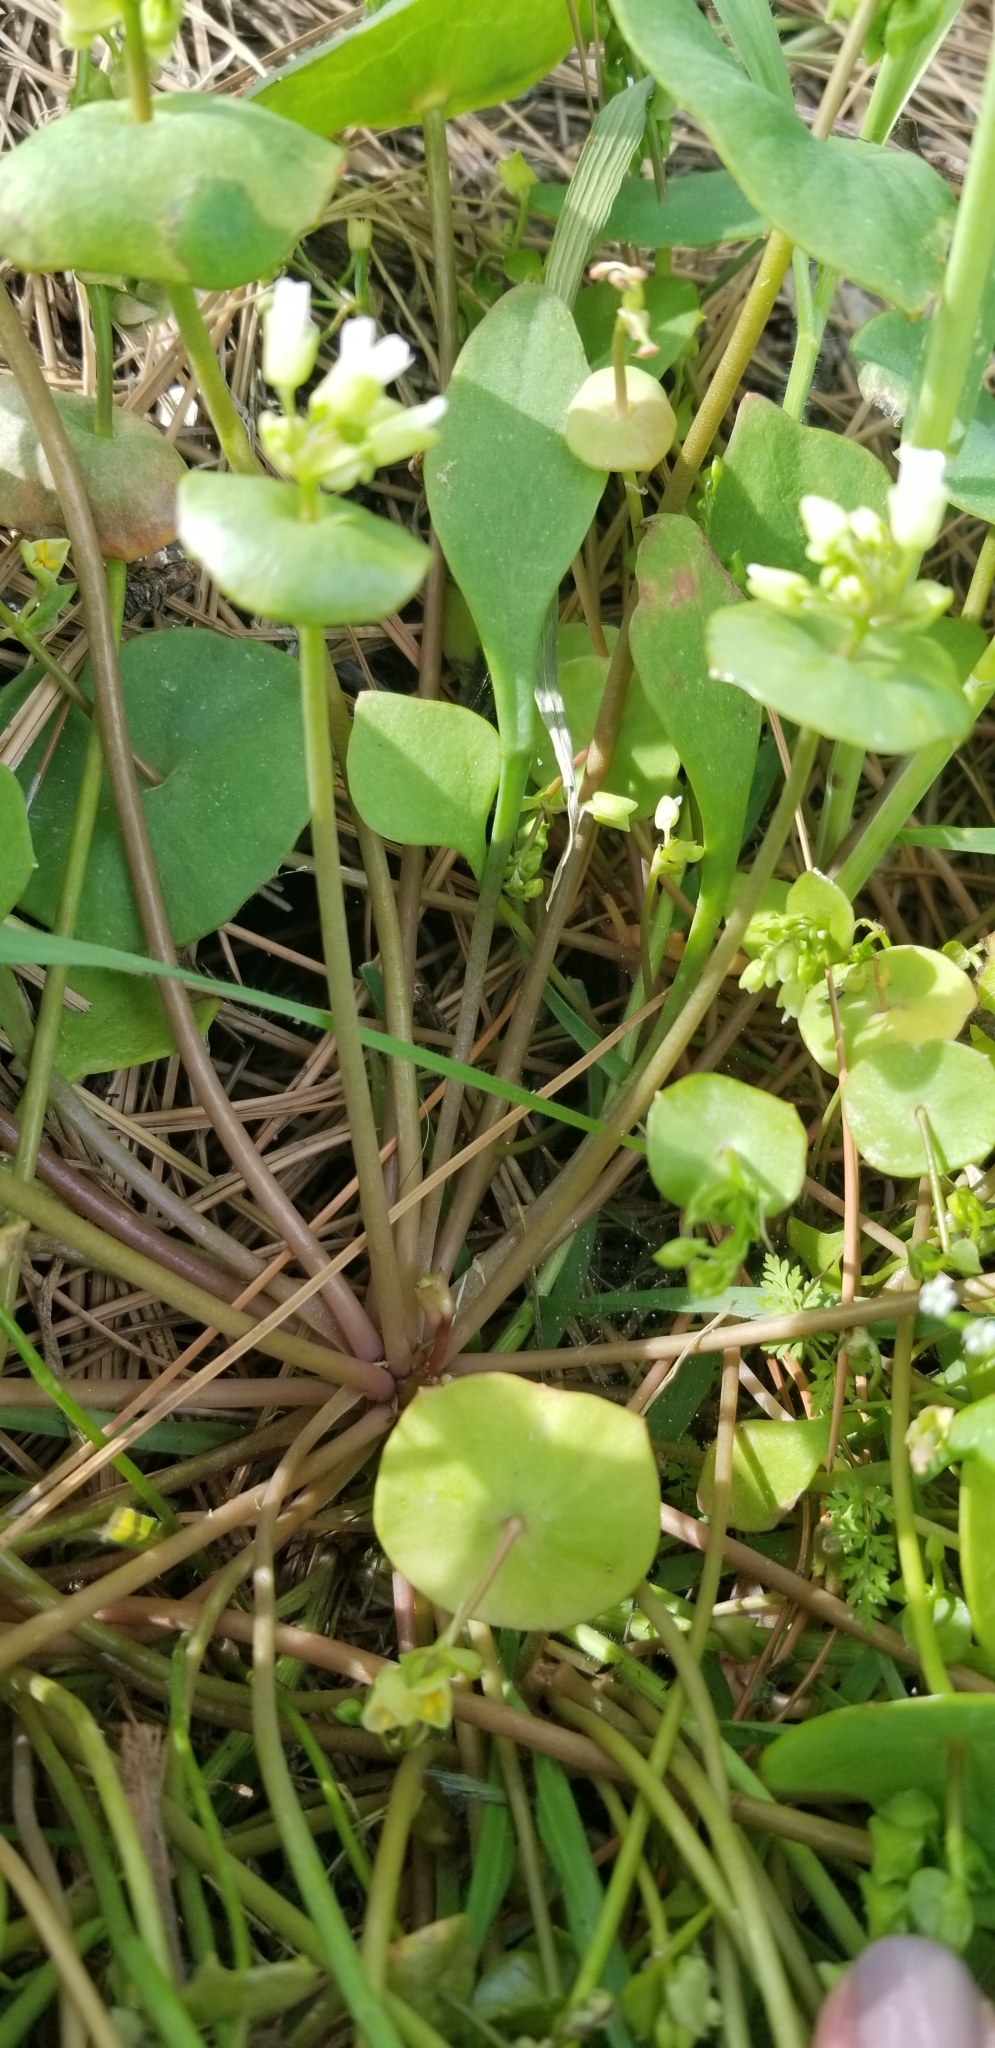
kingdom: Plantae
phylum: Tracheophyta
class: Magnoliopsida
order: Caryophyllales
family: Montiaceae
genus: Claytonia
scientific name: Claytonia perfoliata
